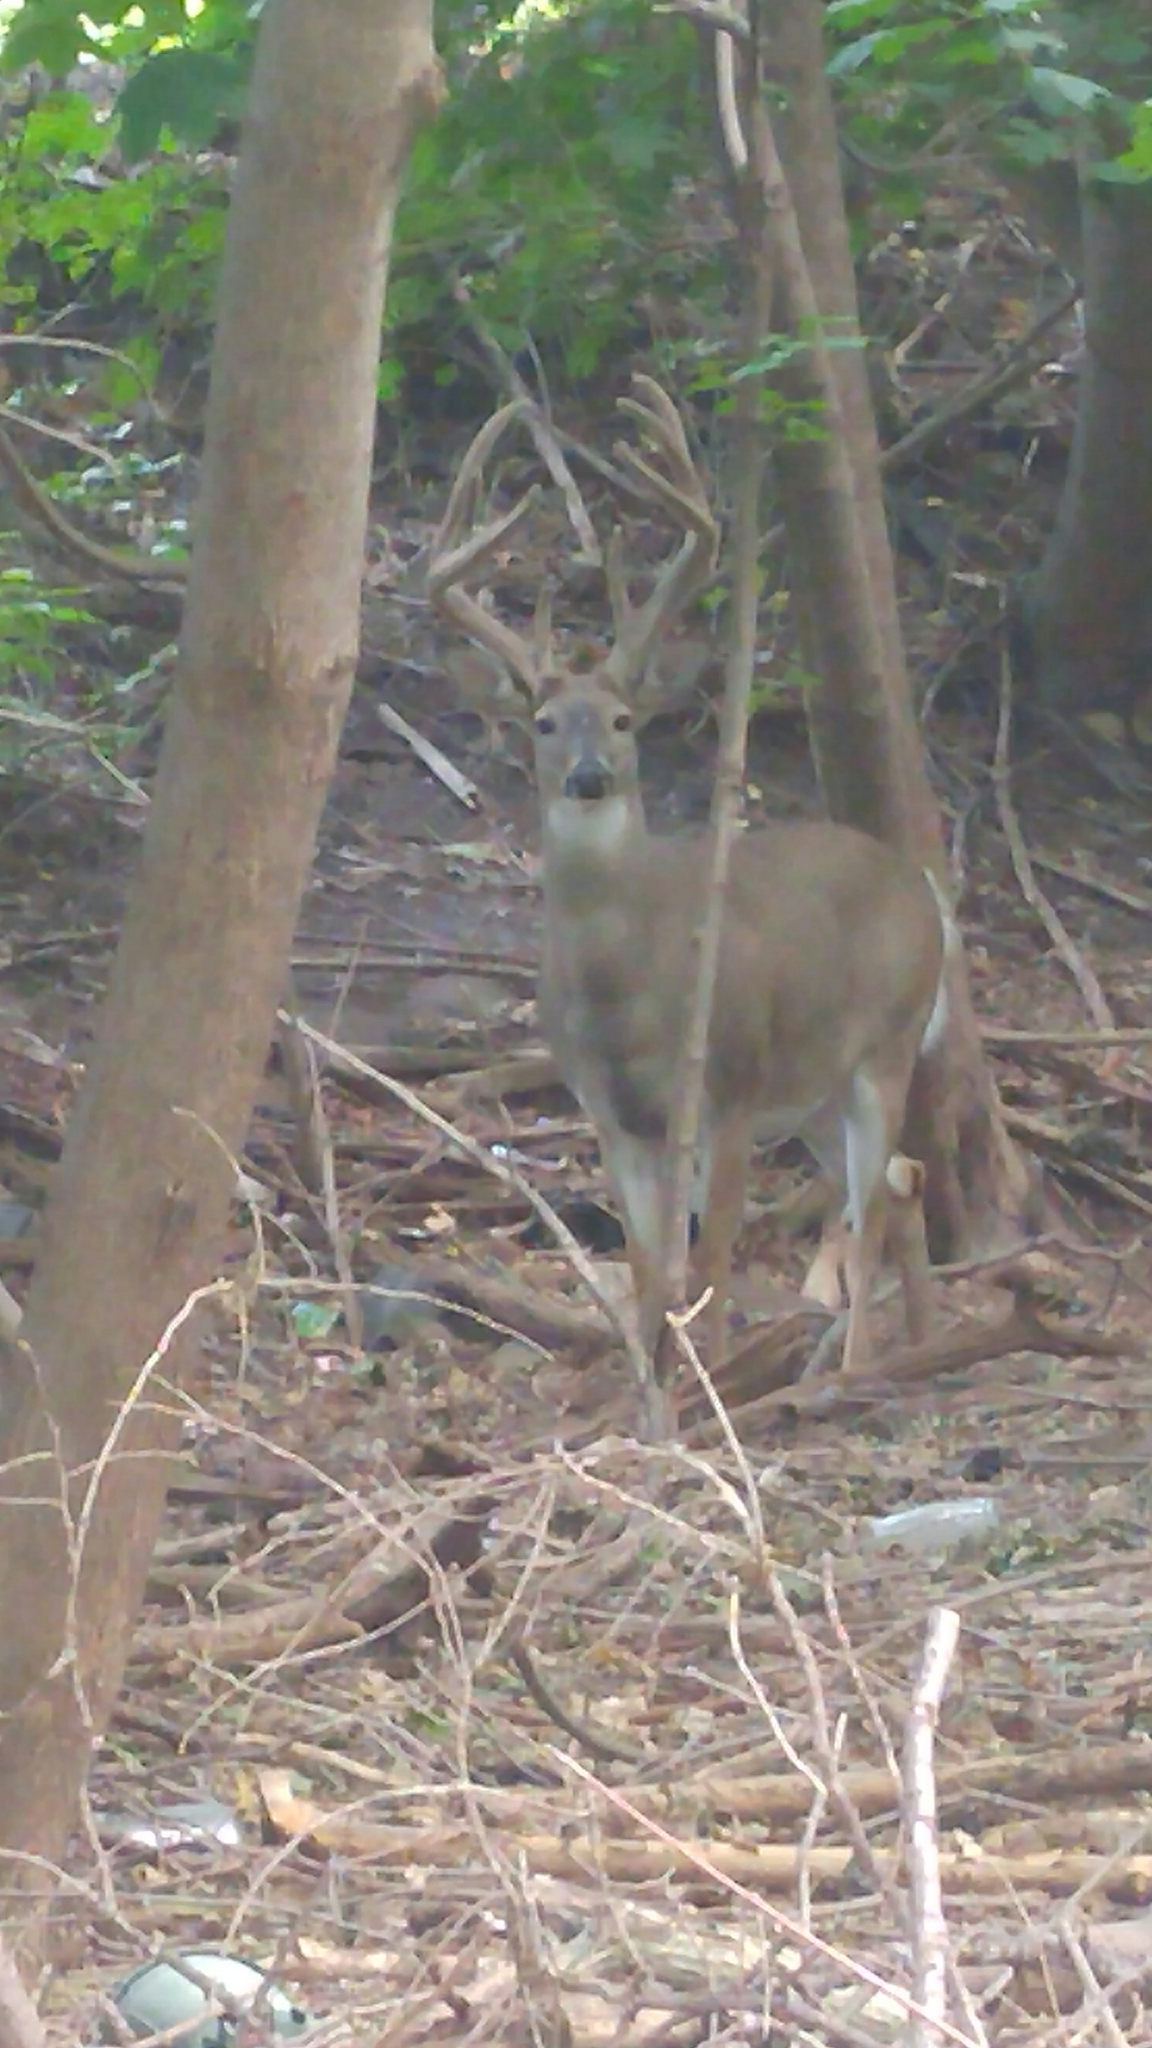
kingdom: Animalia
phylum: Chordata
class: Mammalia
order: Artiodactyla
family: Cervidae
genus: Odocoileus
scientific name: Odocoileus virginianus
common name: White-tailed deer
